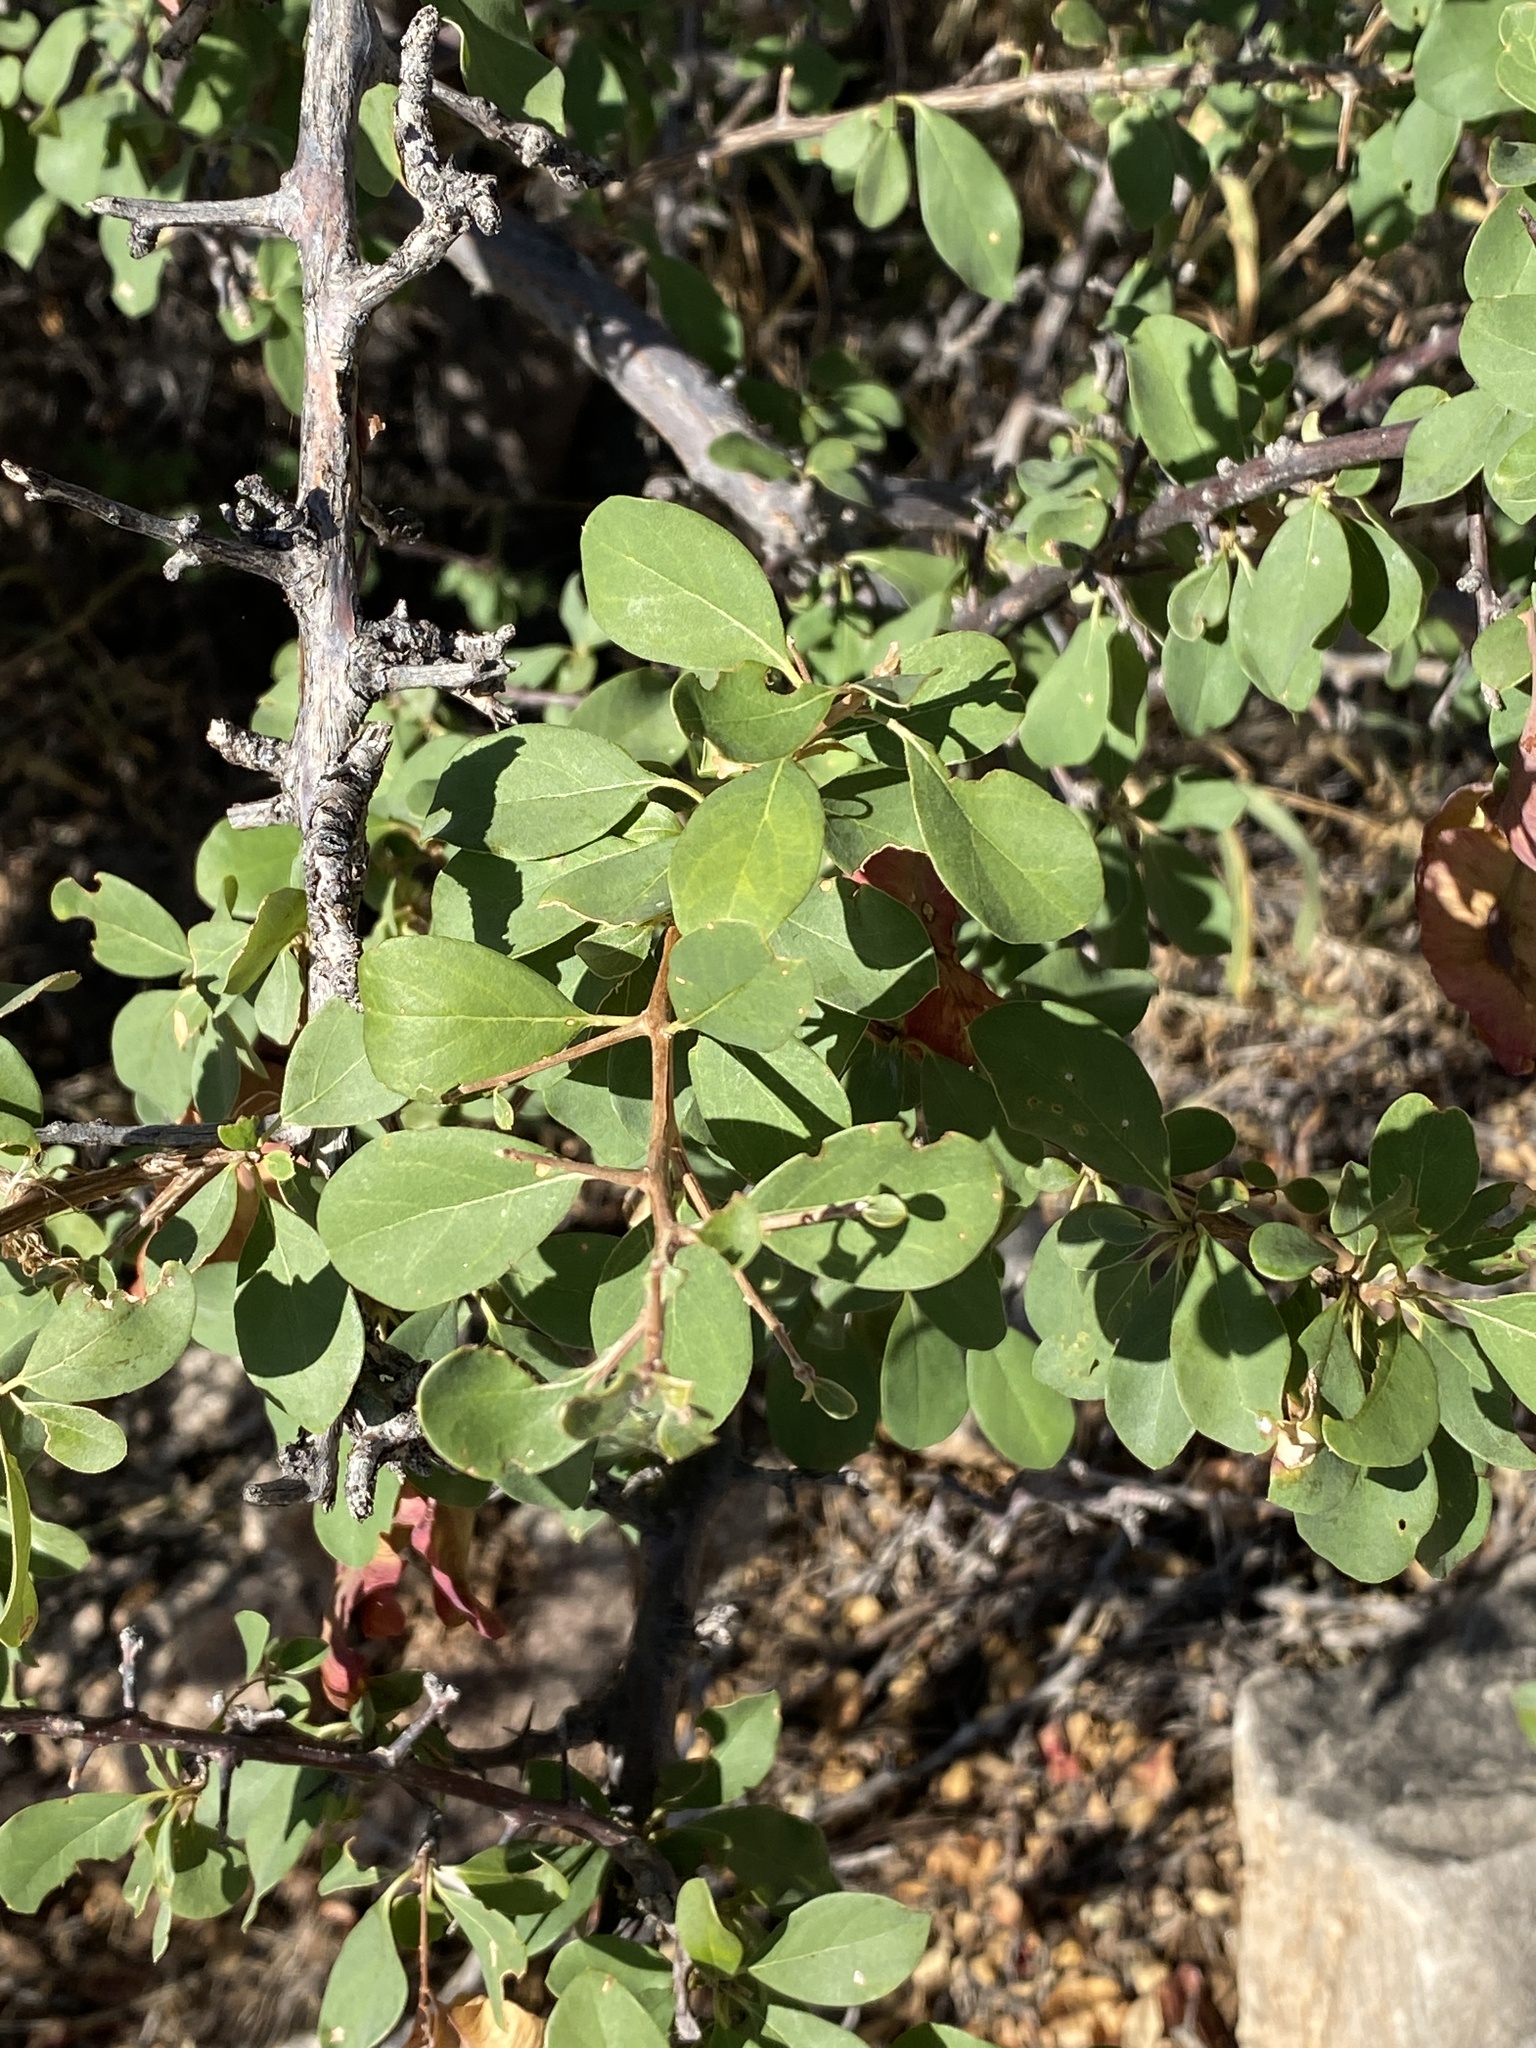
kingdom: Plantae
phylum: Tracheophyta
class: Magnoliopsida
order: Myrtales
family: Combretaceae
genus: Terminalia
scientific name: Terminalia prunioides
